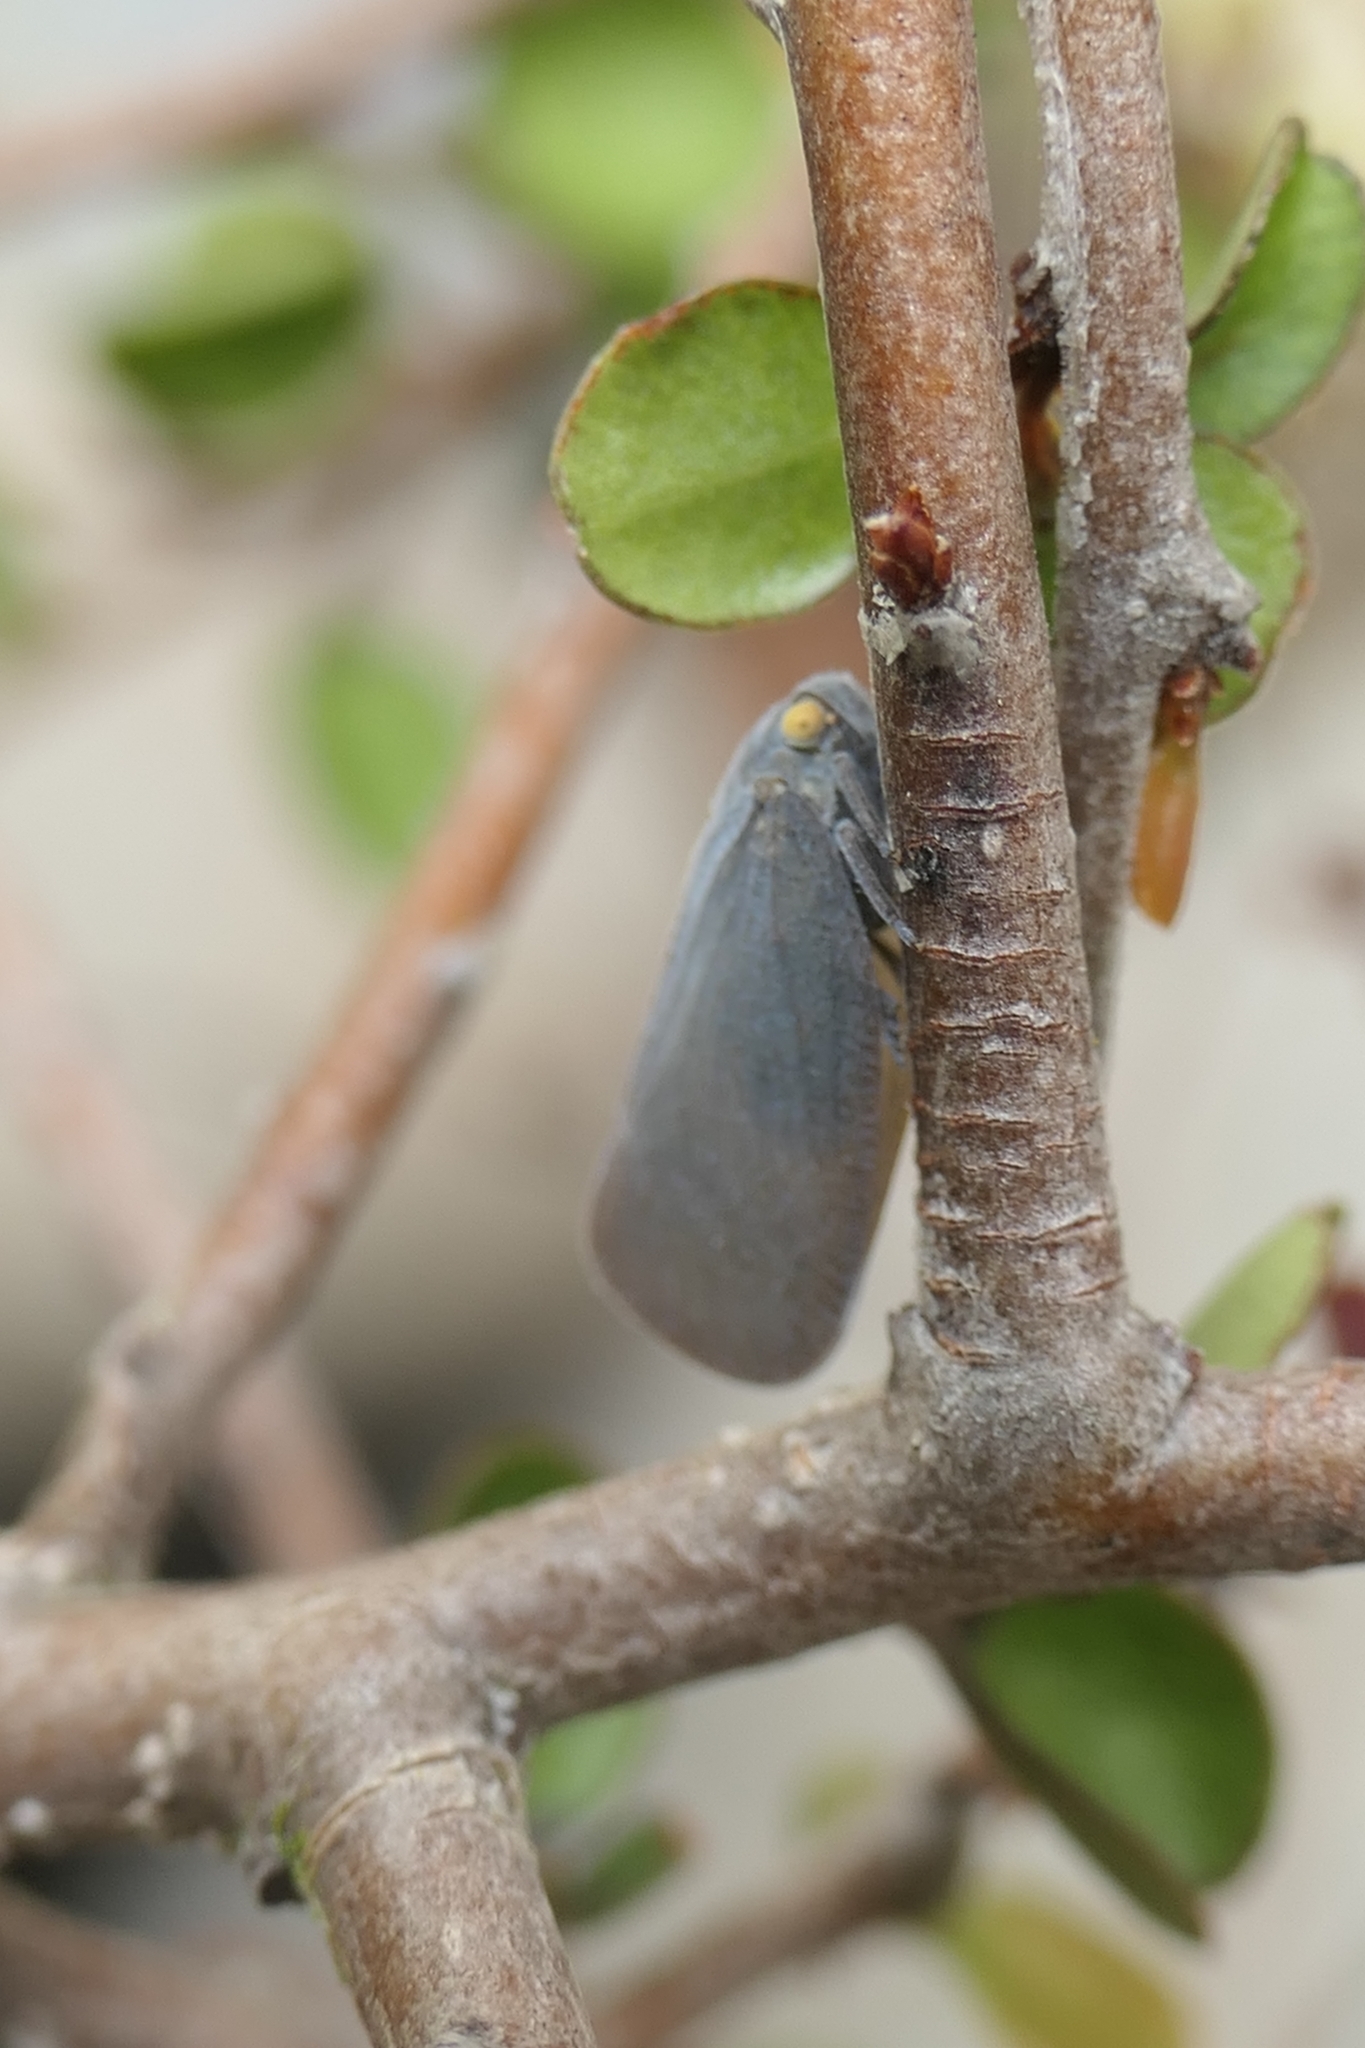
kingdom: Animalia
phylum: Arthropoda
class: Insecta
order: Hemiptera
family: Flatidae
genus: Anzora
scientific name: Anzora unicolor
